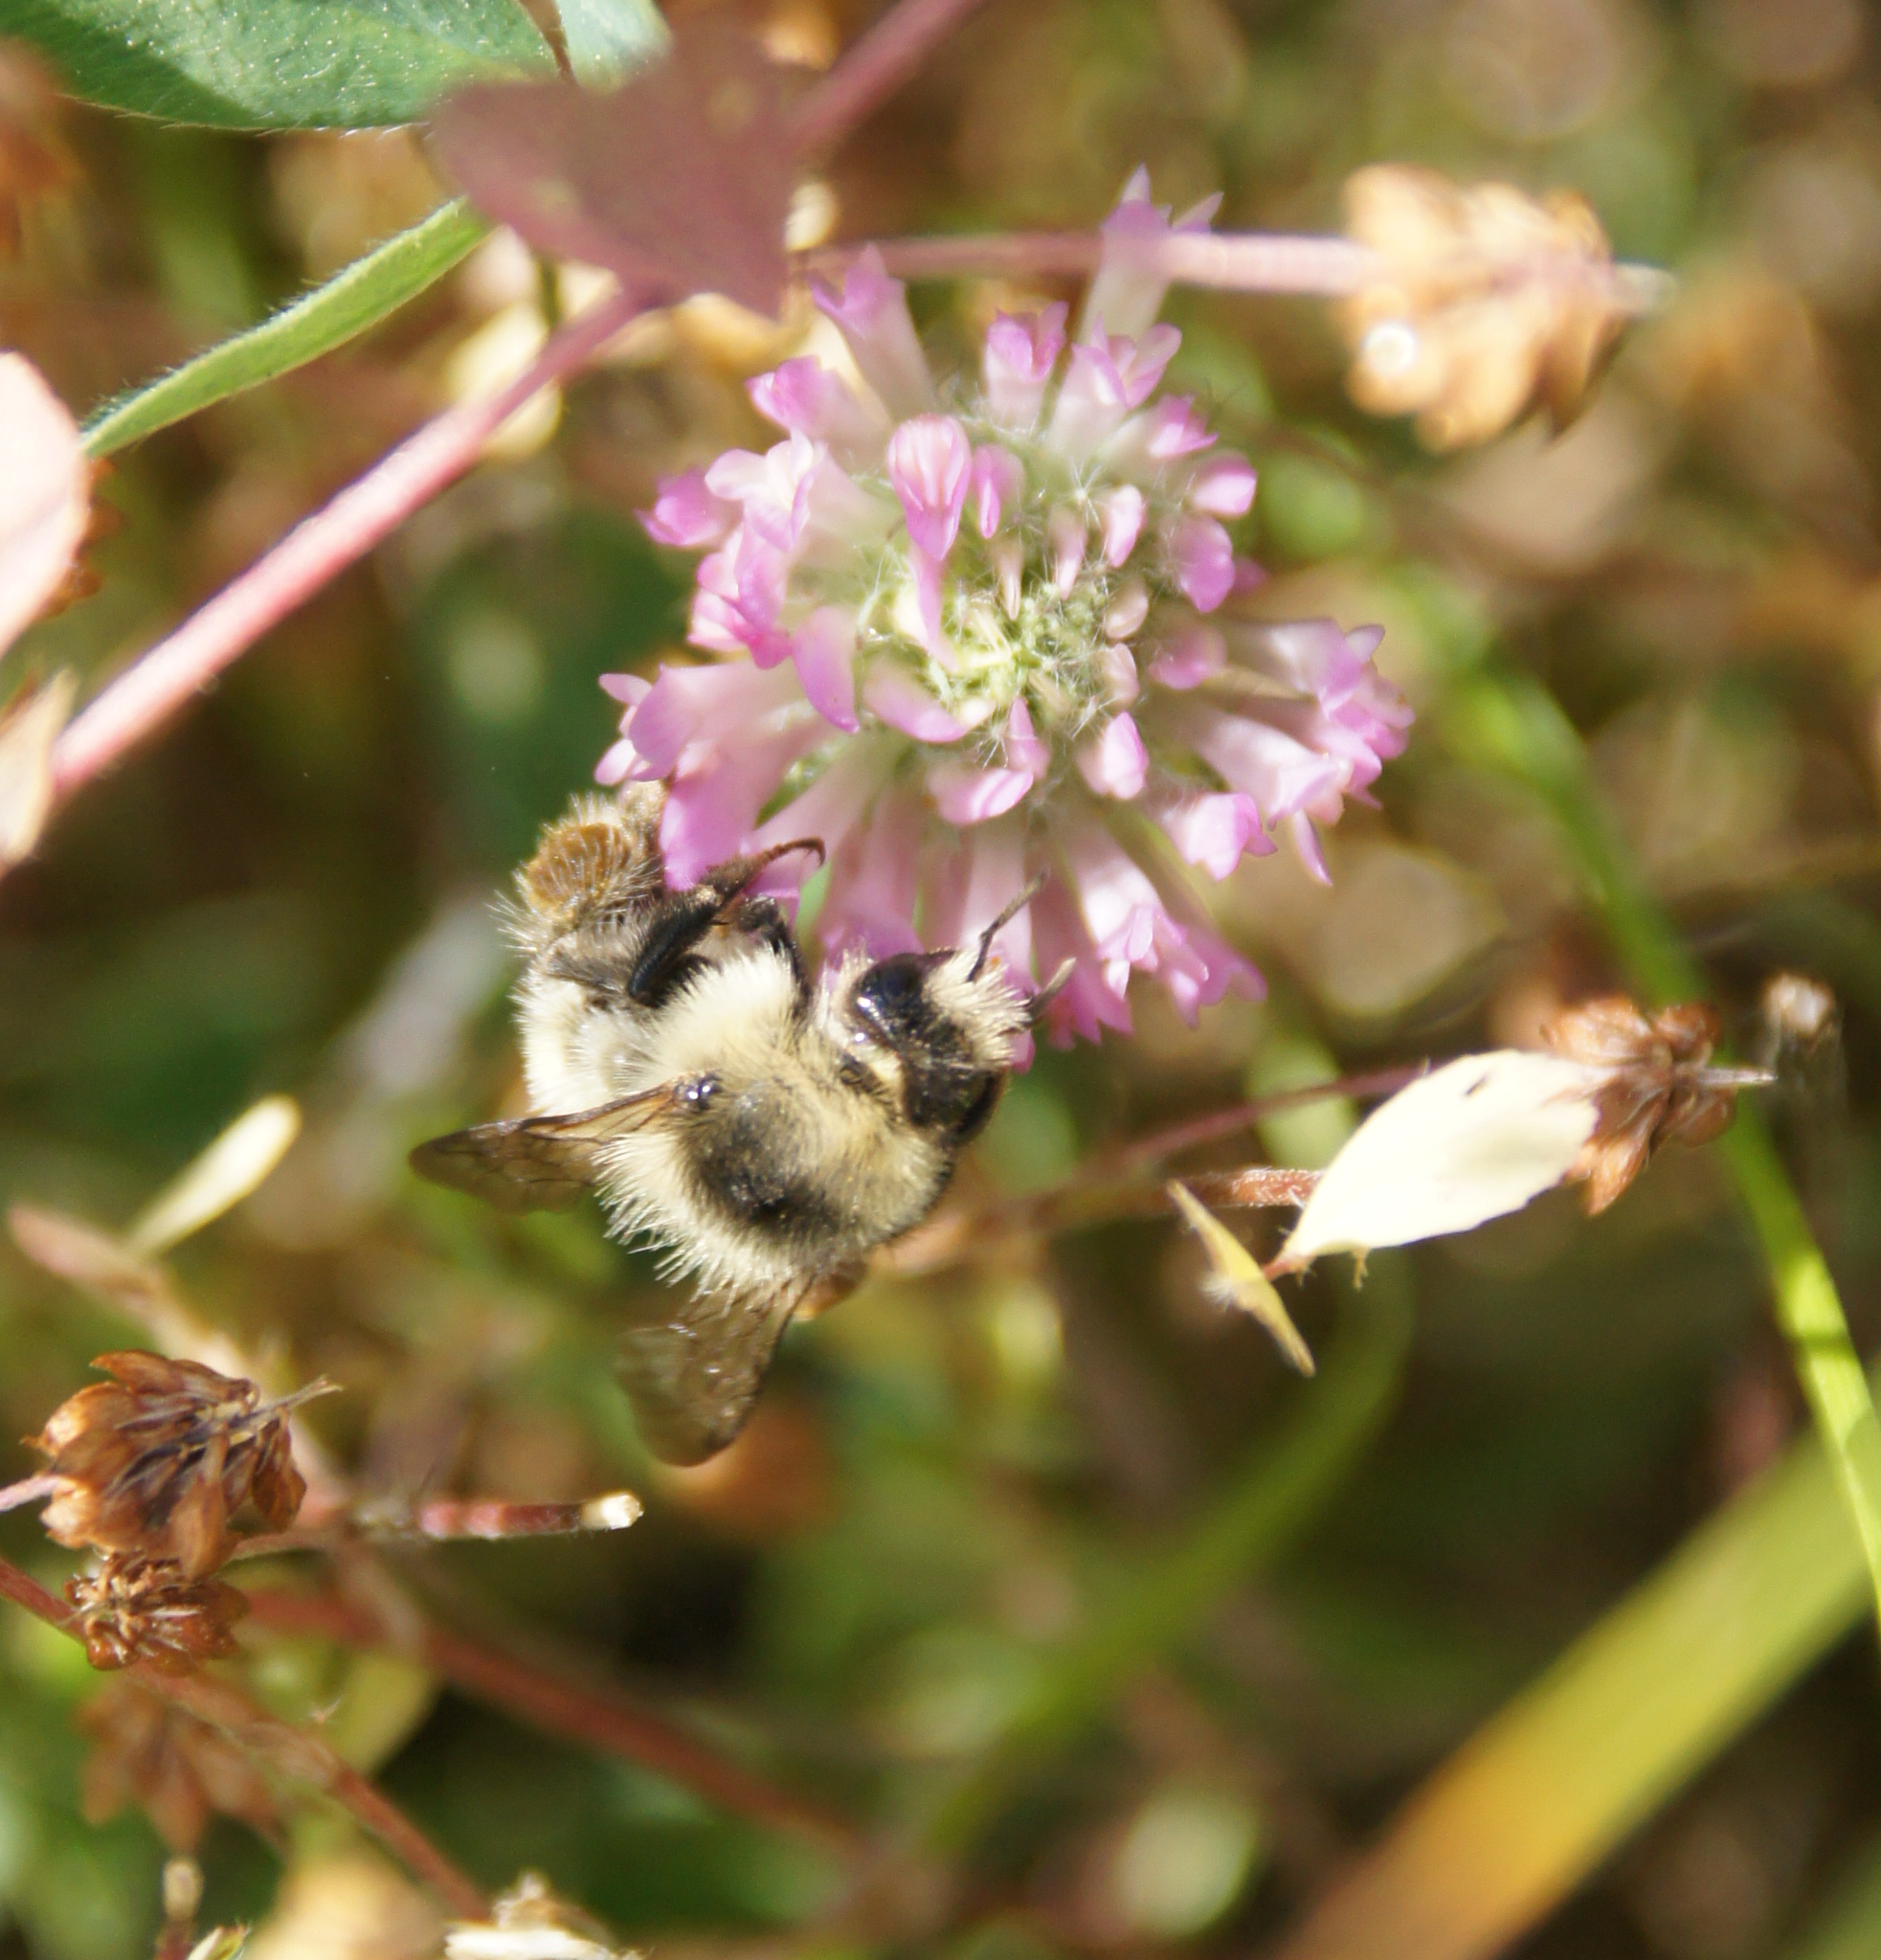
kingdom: Animalia
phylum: Arthropoda
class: Insecta
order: Hymenoptera
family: Apidae
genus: Bombus
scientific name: Bombus sylvarum
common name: Shrill carder bee
